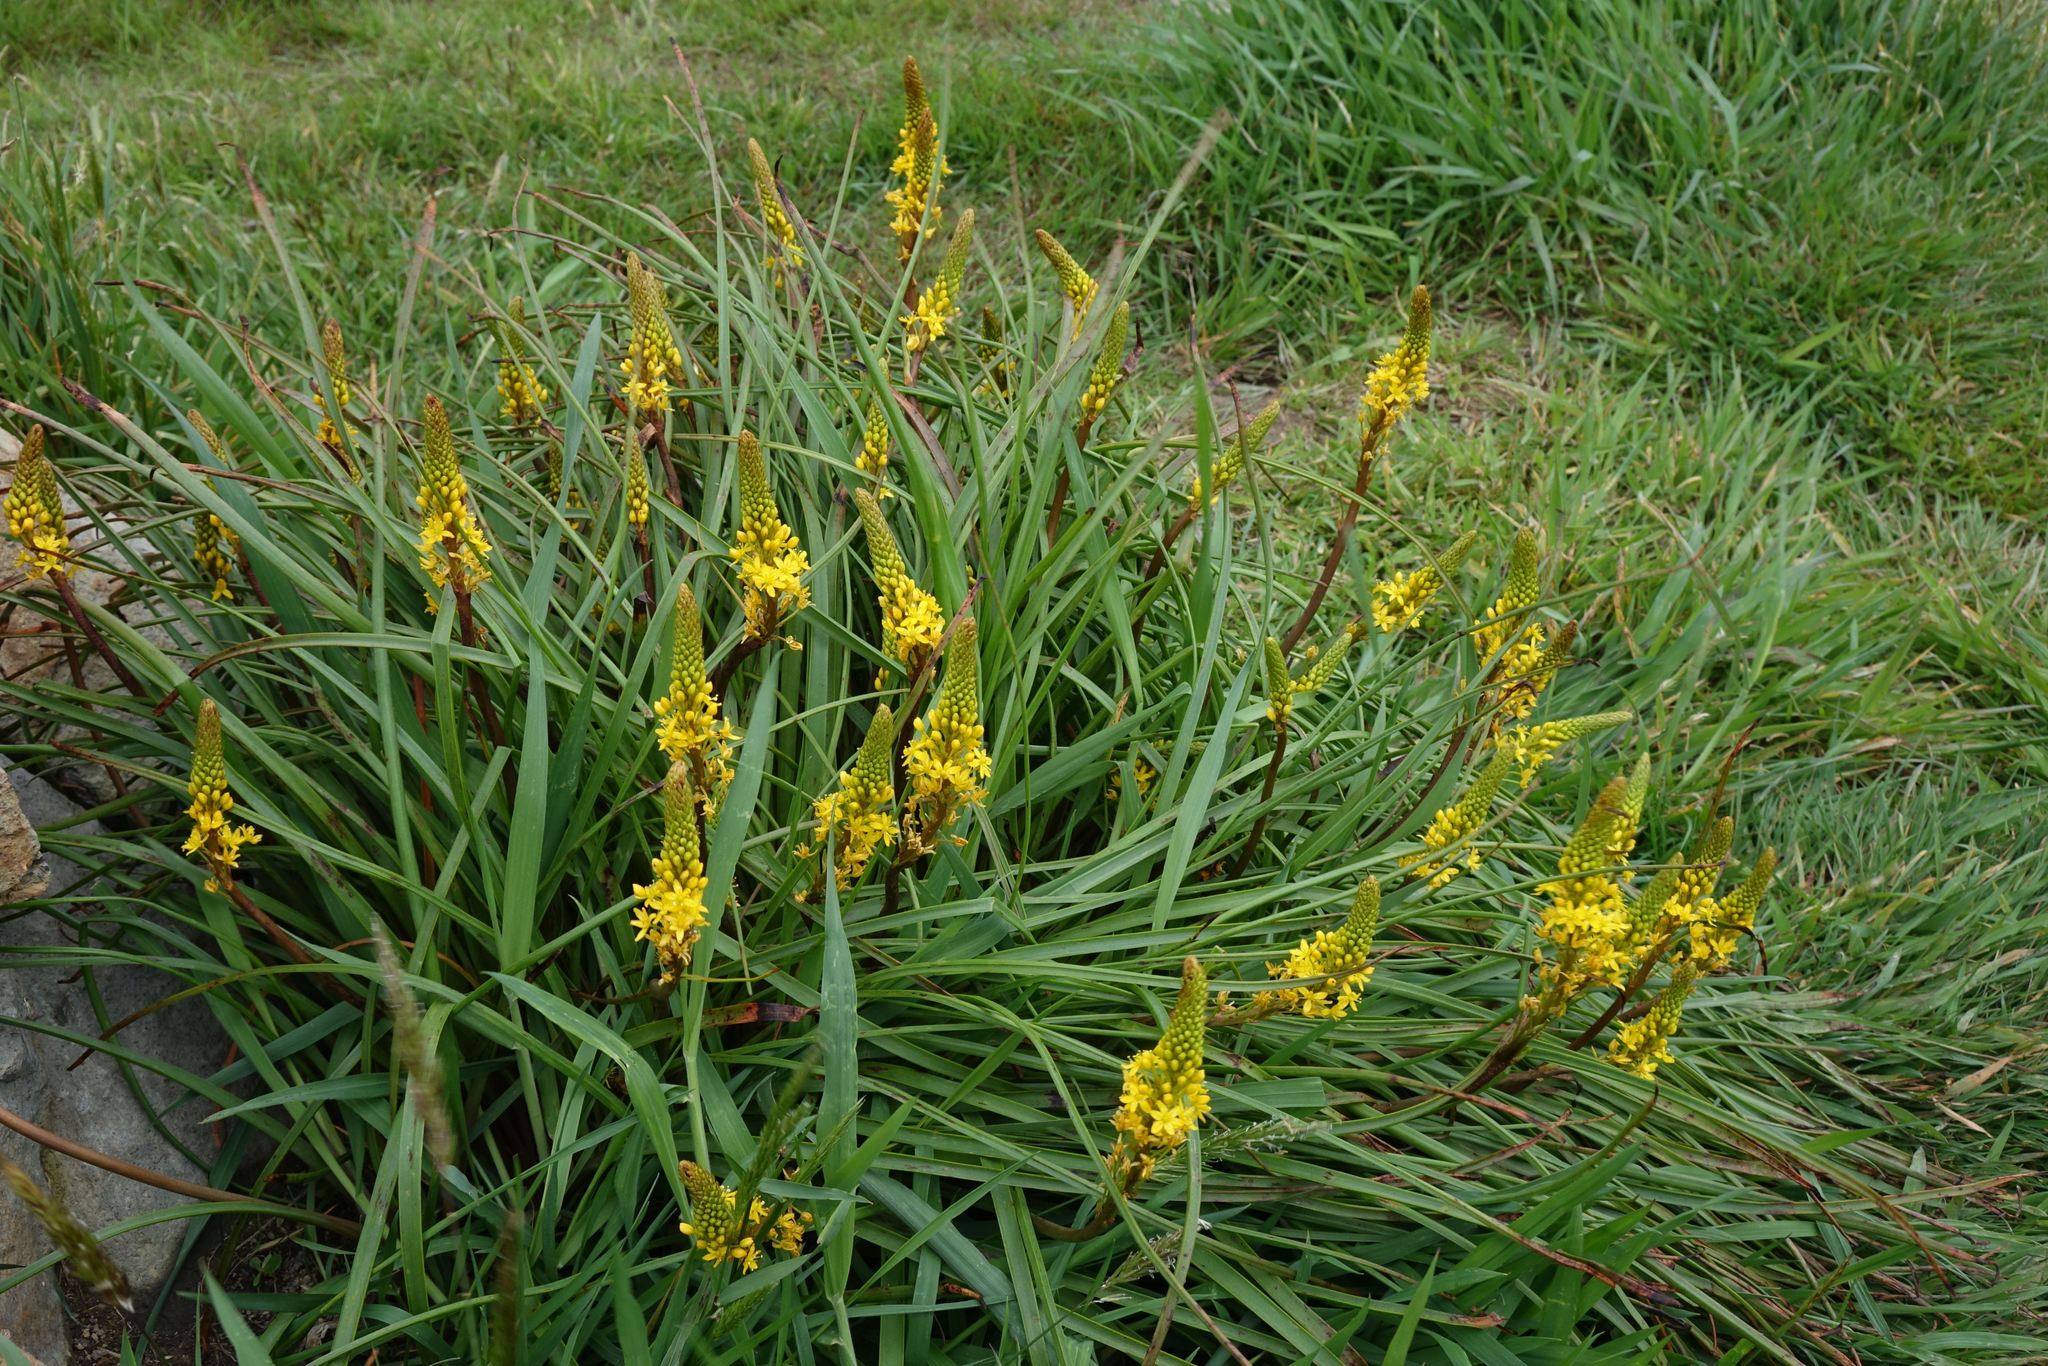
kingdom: Plantae
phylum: Tracheophyta
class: Liliopsida
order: Asparagales
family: Asphodelaceae
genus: Bulbinella
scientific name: Bulbinella angustifolia
